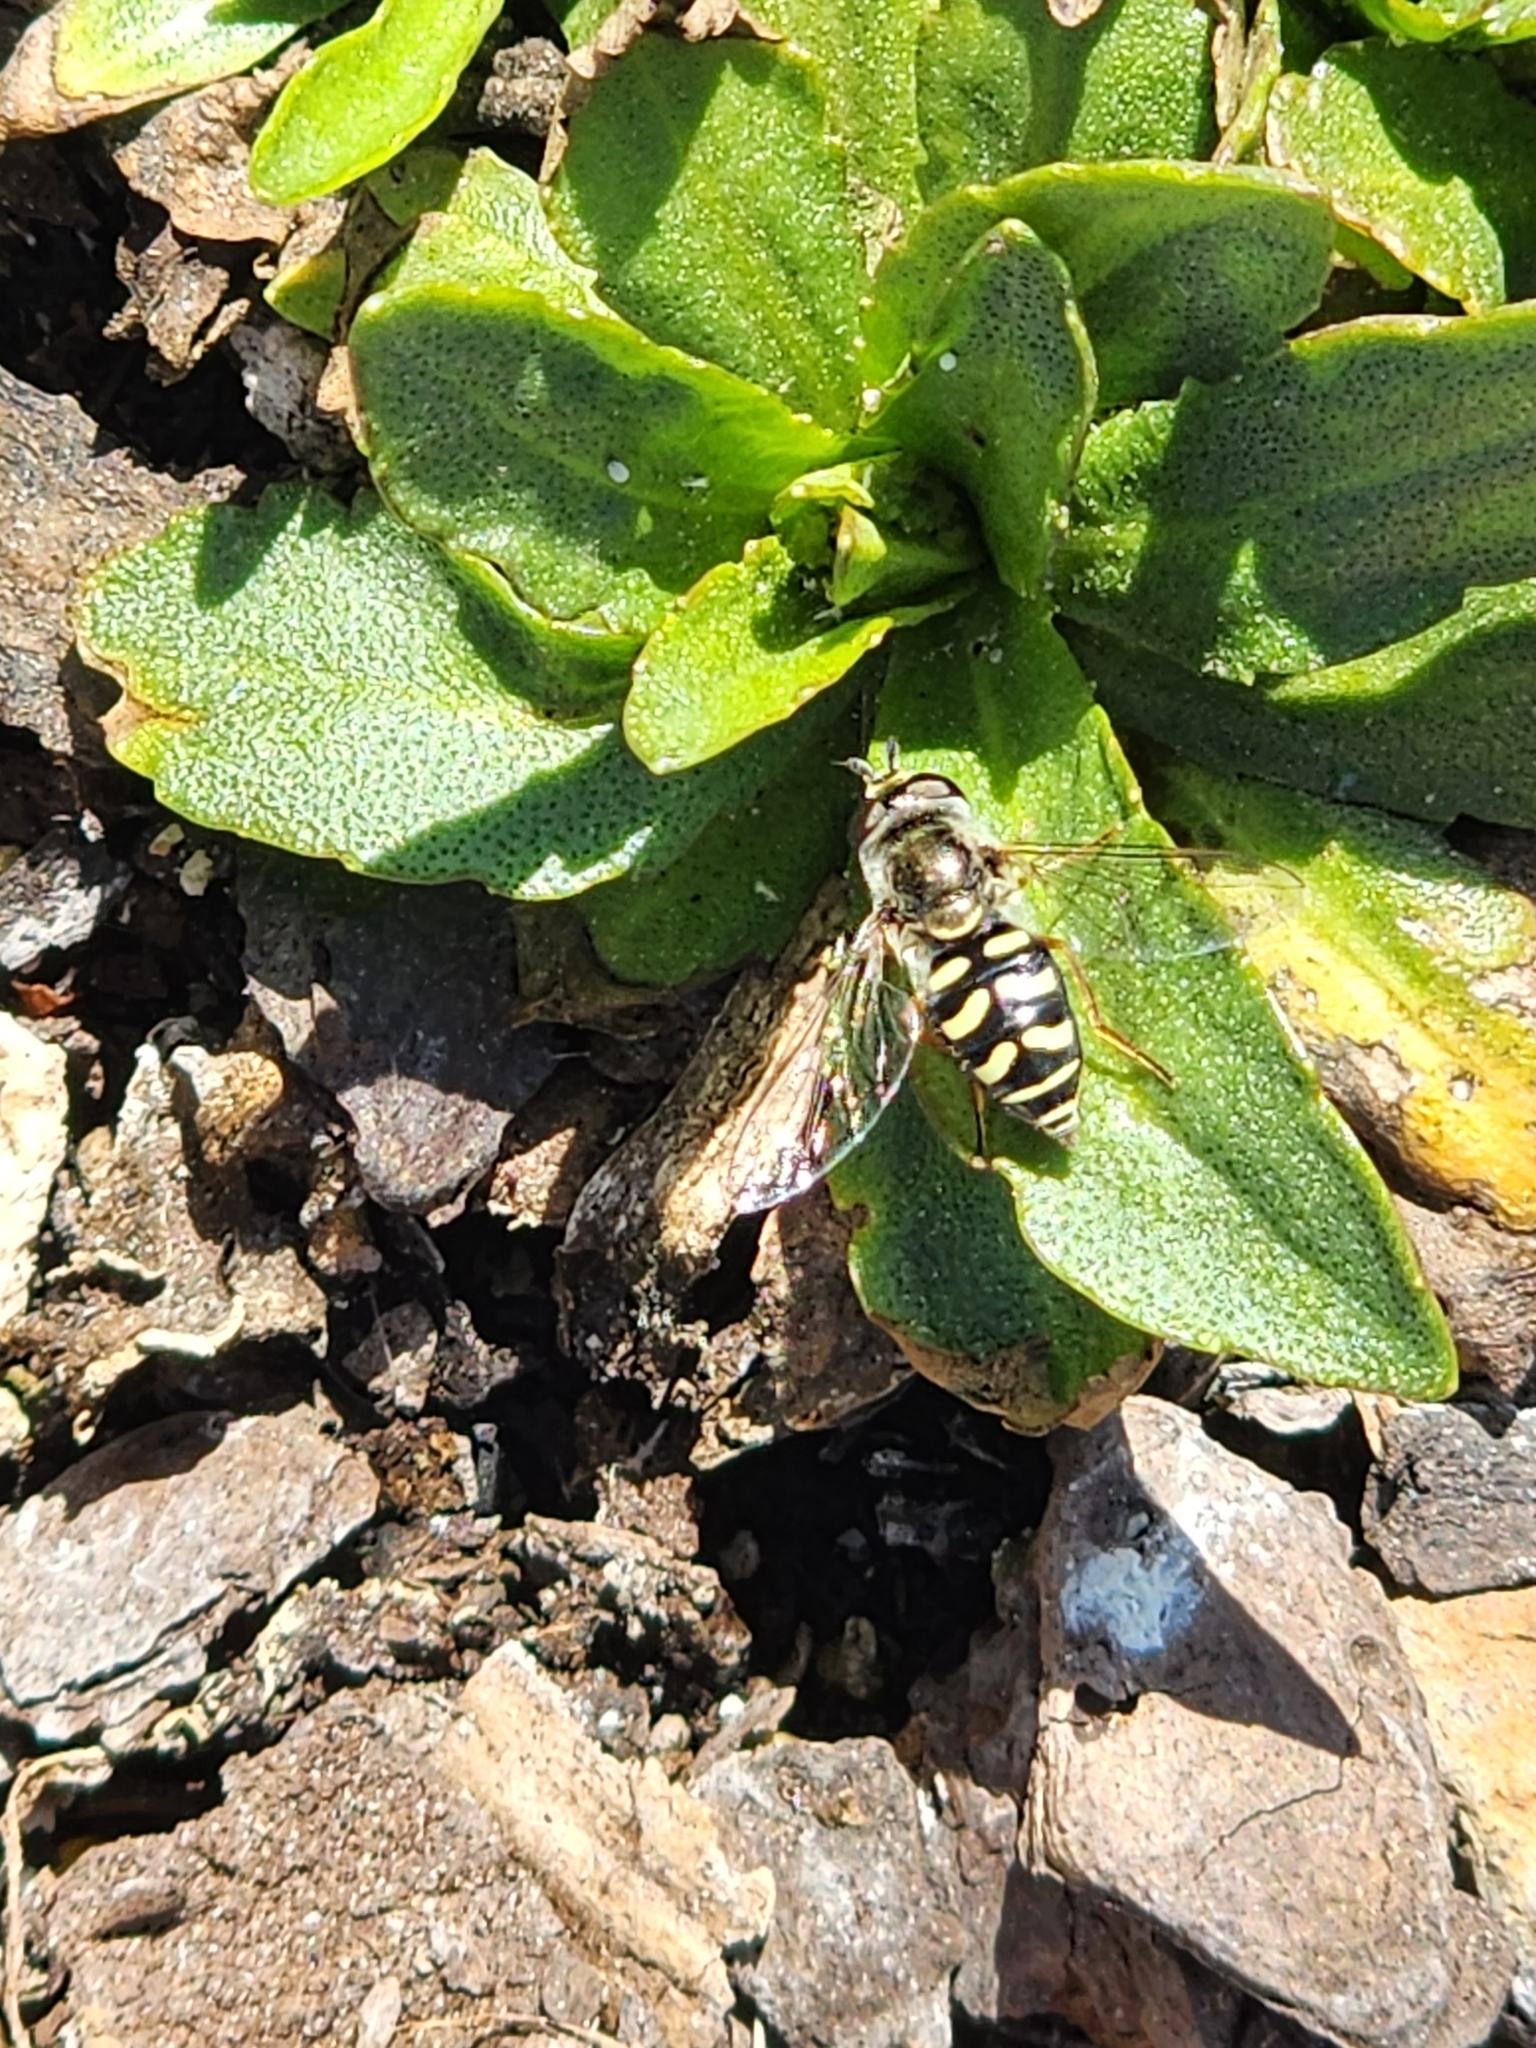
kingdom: Animalia
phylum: Arthropoda
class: Insecta
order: Diptera
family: Syrphidae
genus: Eupeodes
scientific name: Eupeodes volucris
